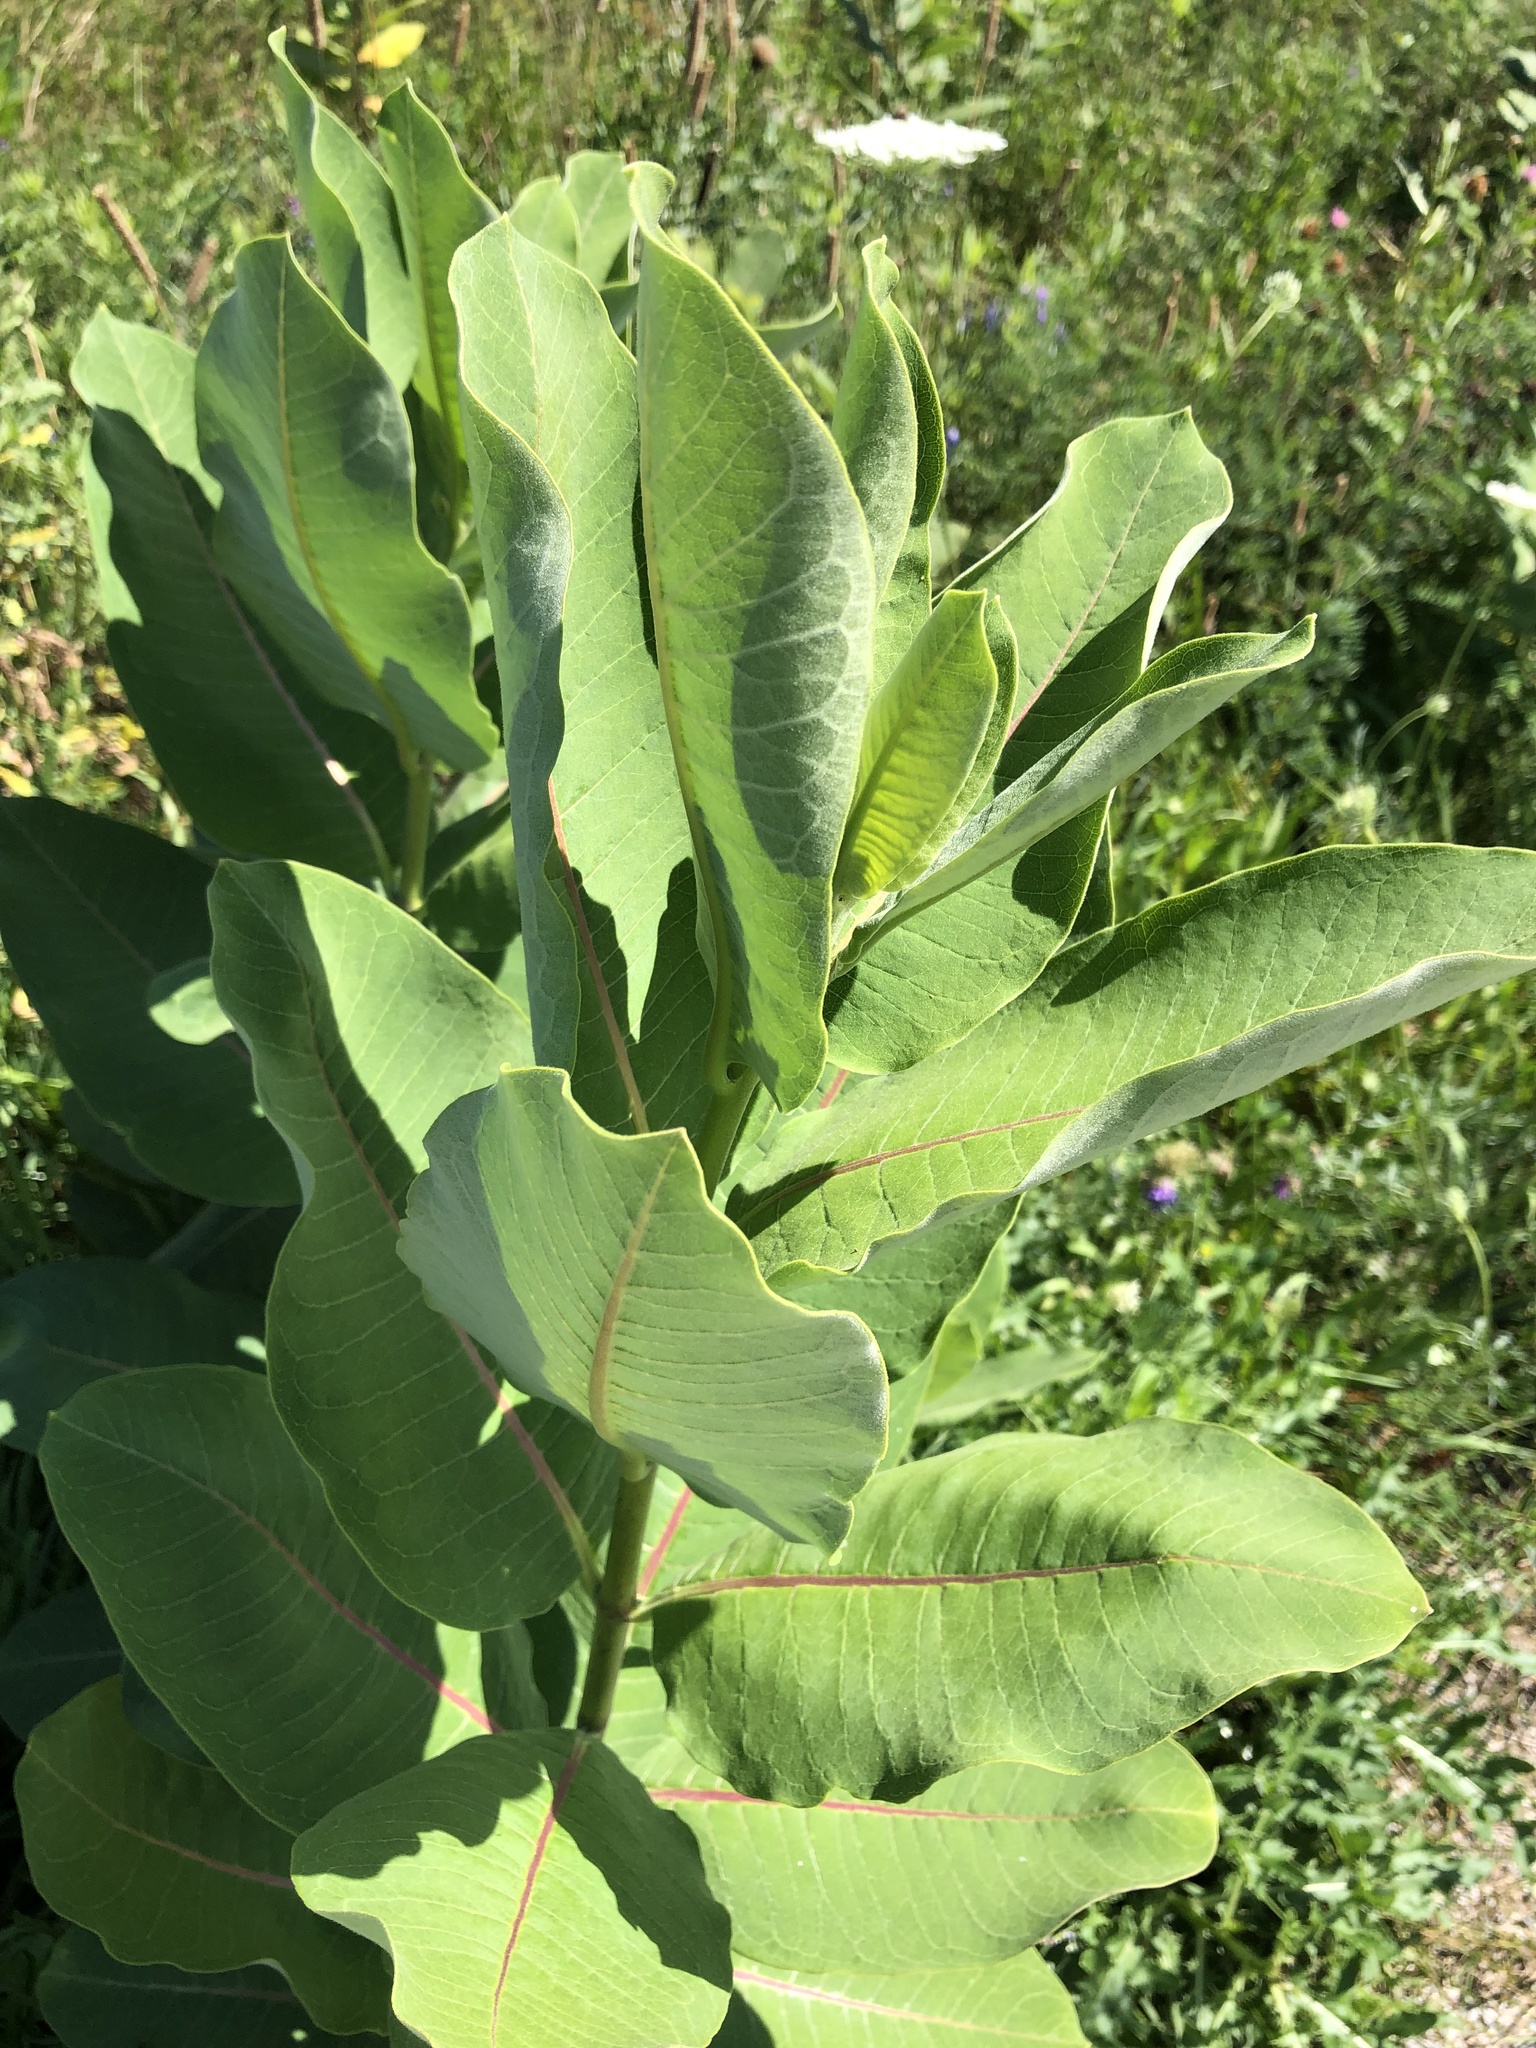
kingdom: Plantae
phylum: Tracheophyta
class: Magnoliopsida
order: Gentianales
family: Apocynaceae
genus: Asclepias
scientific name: Asclepias syriaca
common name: Common milkweed
